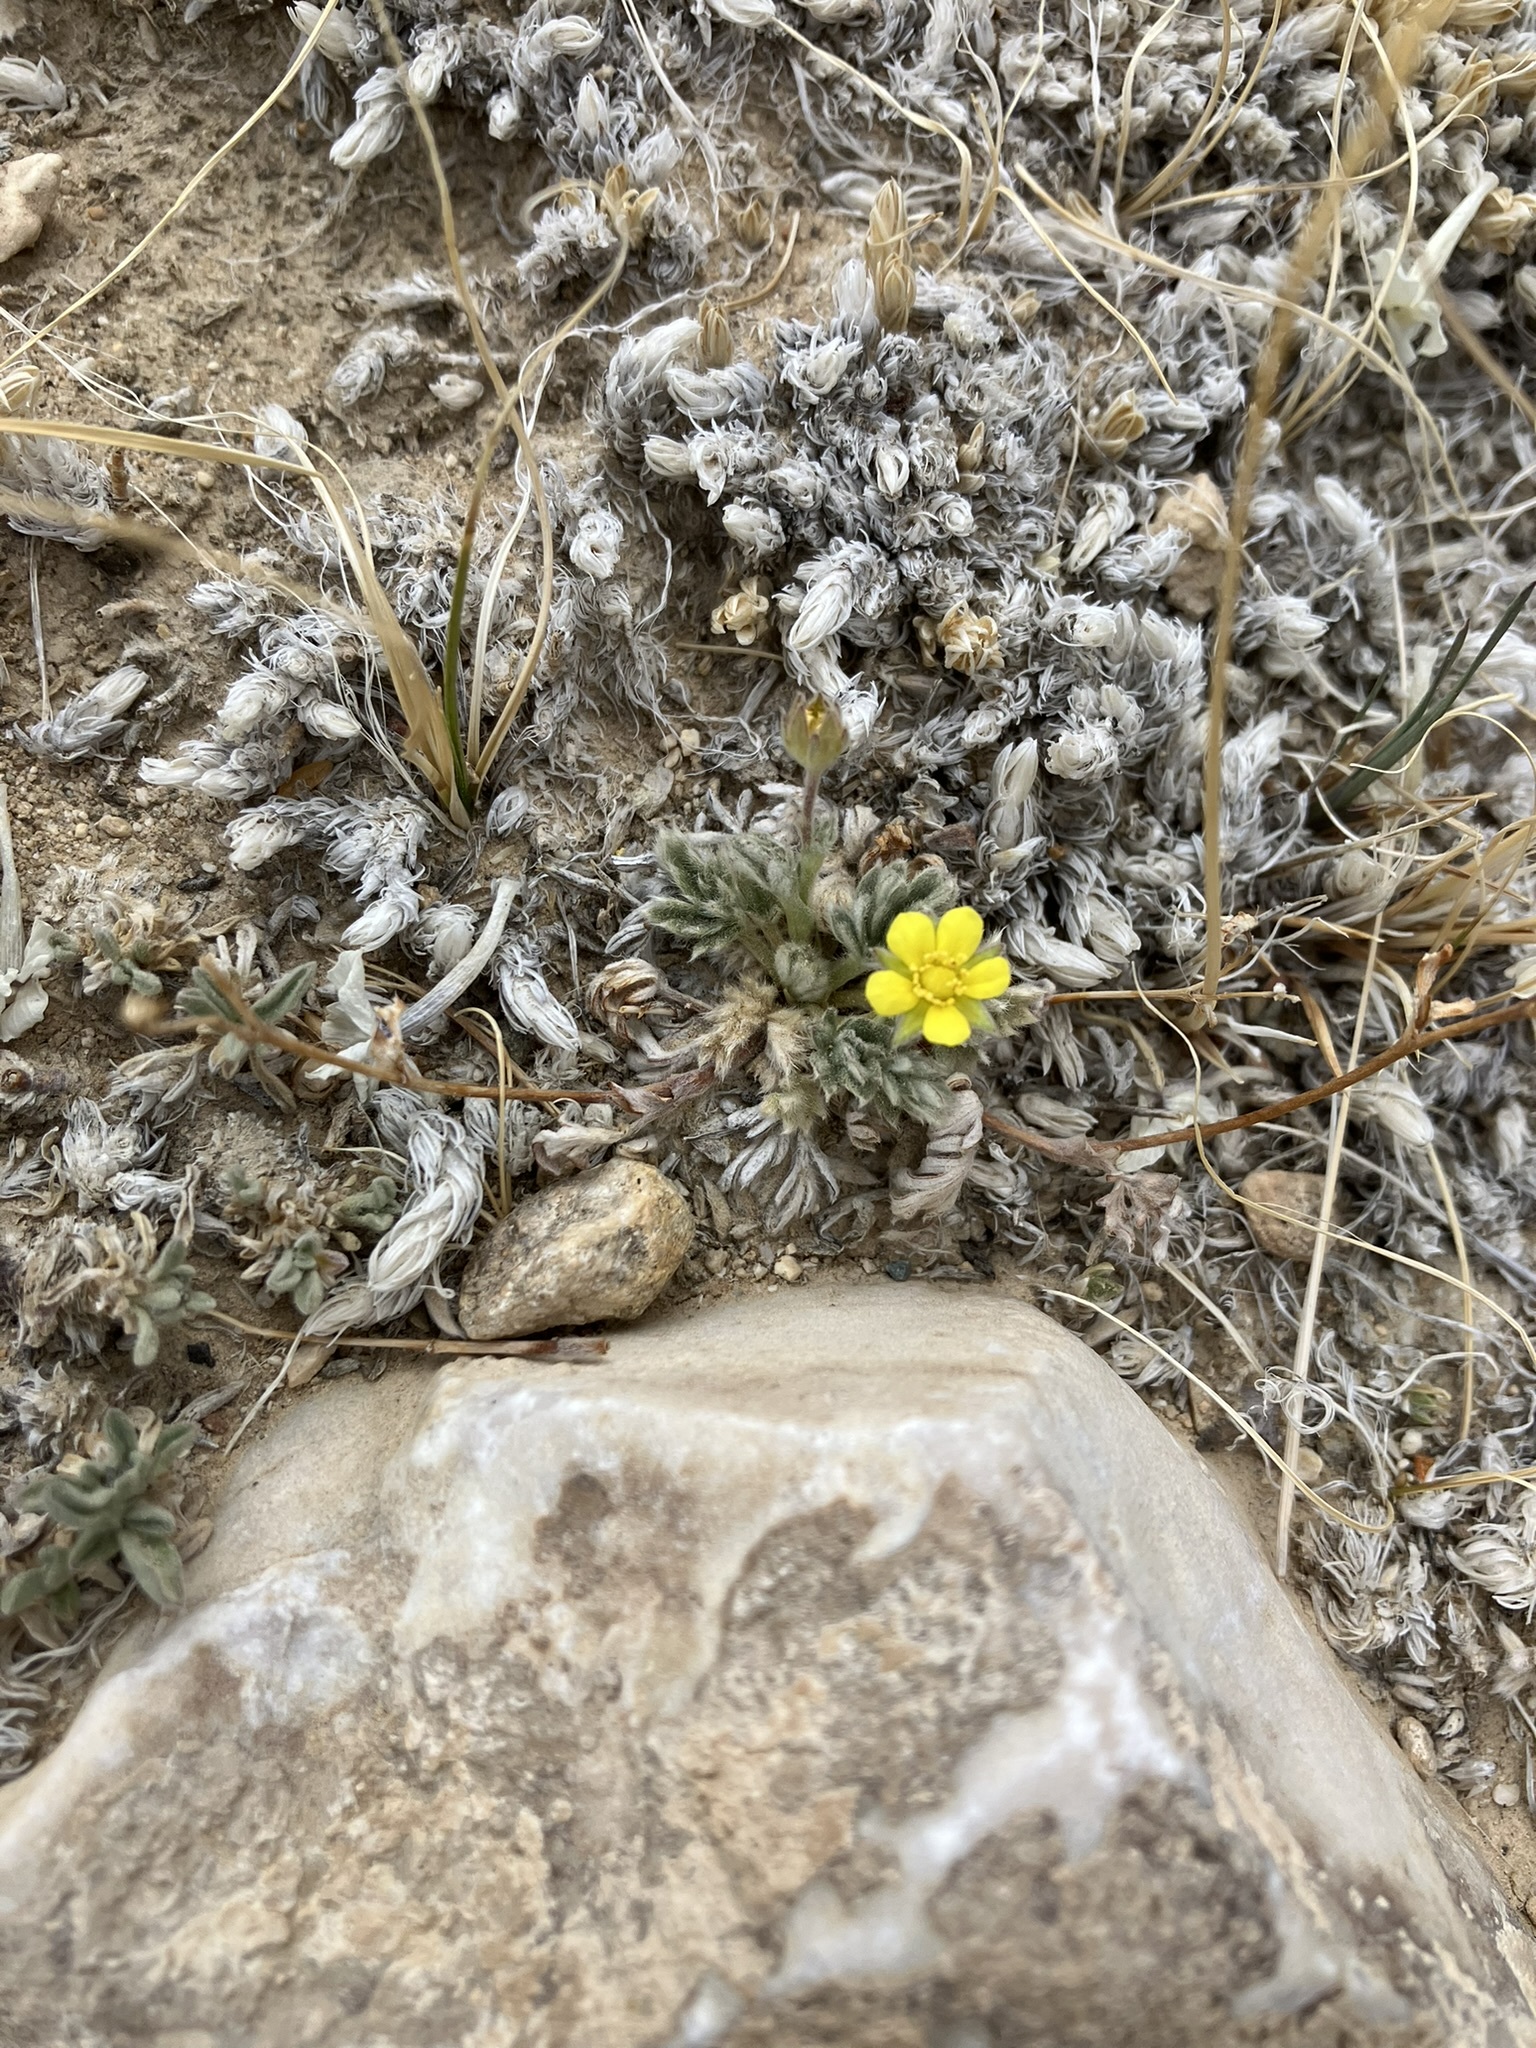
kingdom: Plantae
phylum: Tracheophyta
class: Magnoliopsida
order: Rosales
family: Rosaceae
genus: Potentilla
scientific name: Potentilla pseudosericea
